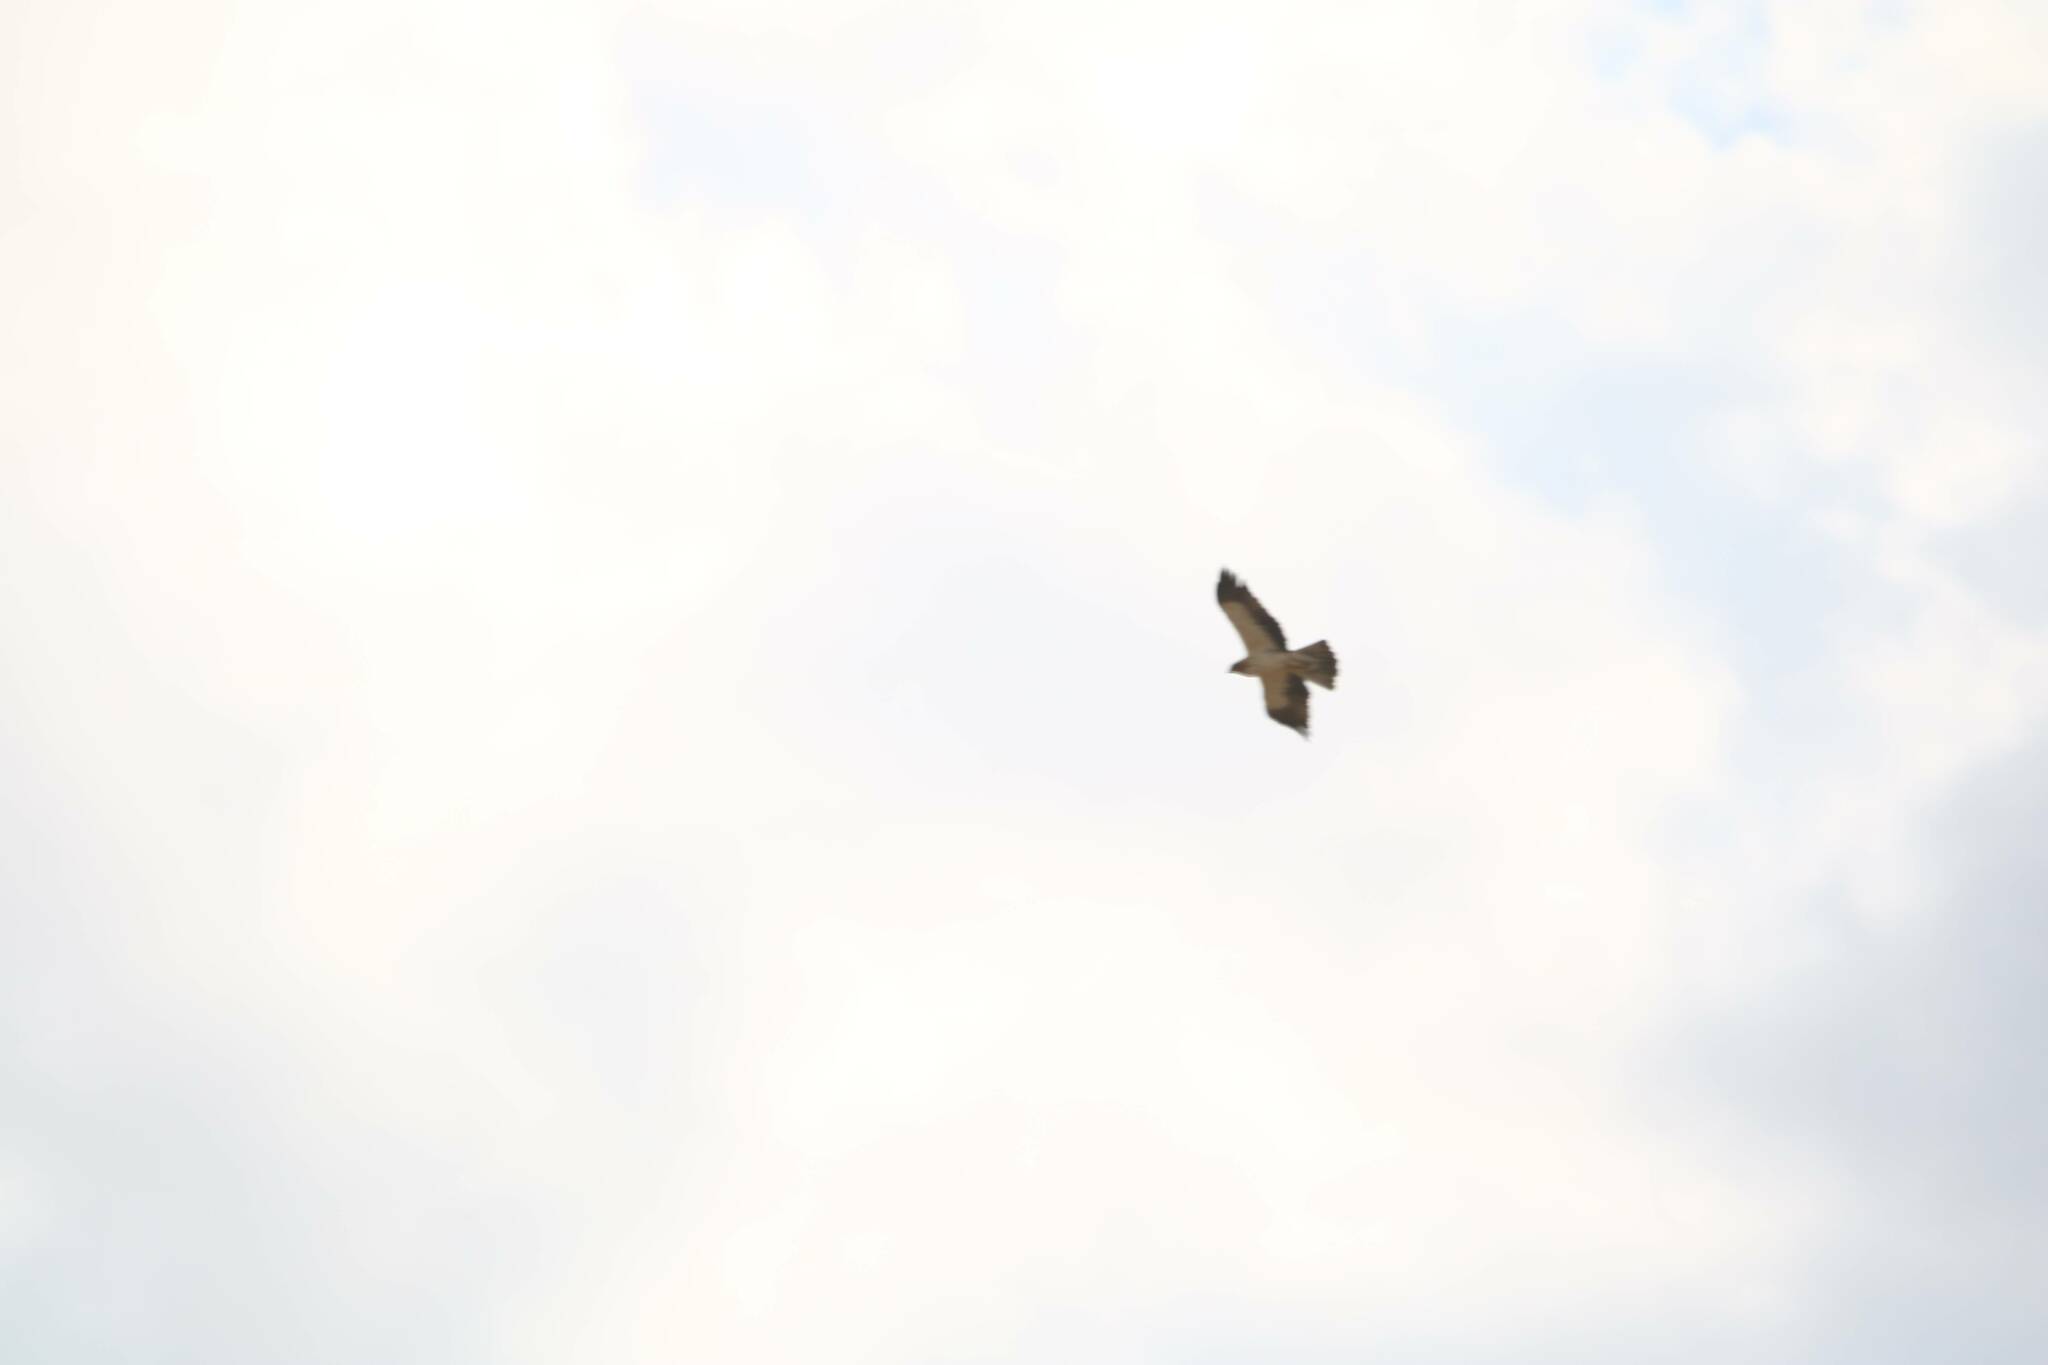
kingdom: Animalia
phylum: Chordata
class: Aves
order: Accipitriformes
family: Accipitridae
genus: Hieraaetus
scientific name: Hieraaetus pennatus
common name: Booted eagle
